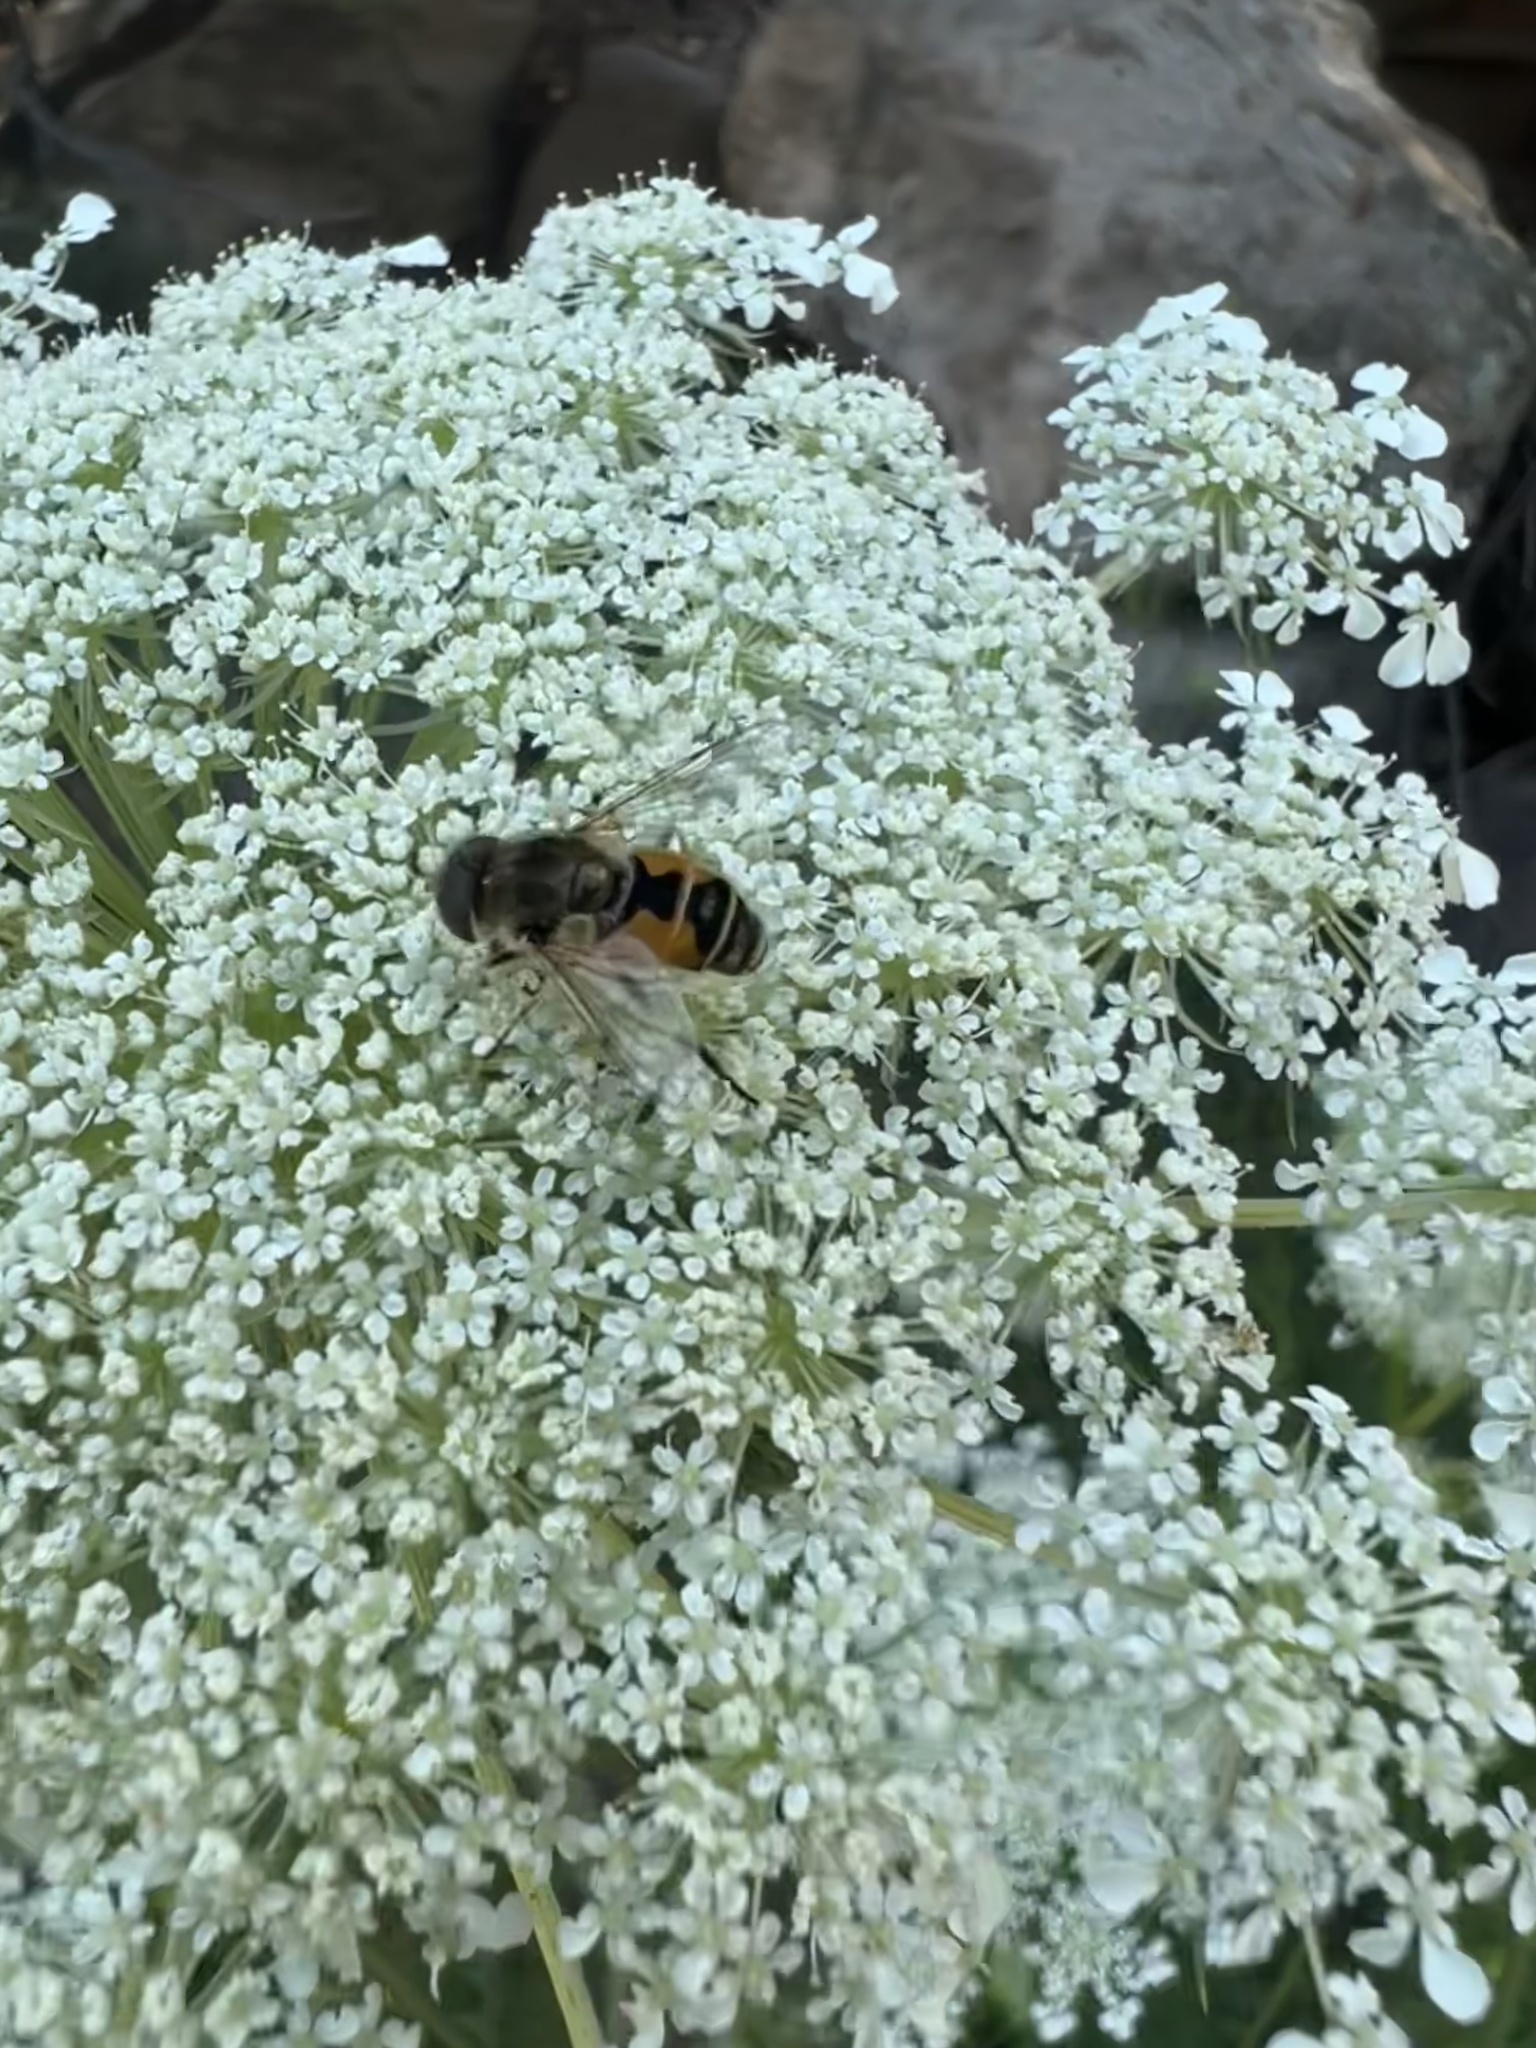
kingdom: Animalia
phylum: Arthropoda
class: Insecta
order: Diptera
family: Syrphidae
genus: Eristalis
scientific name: Eristalis arbustorum
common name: Hover fly
